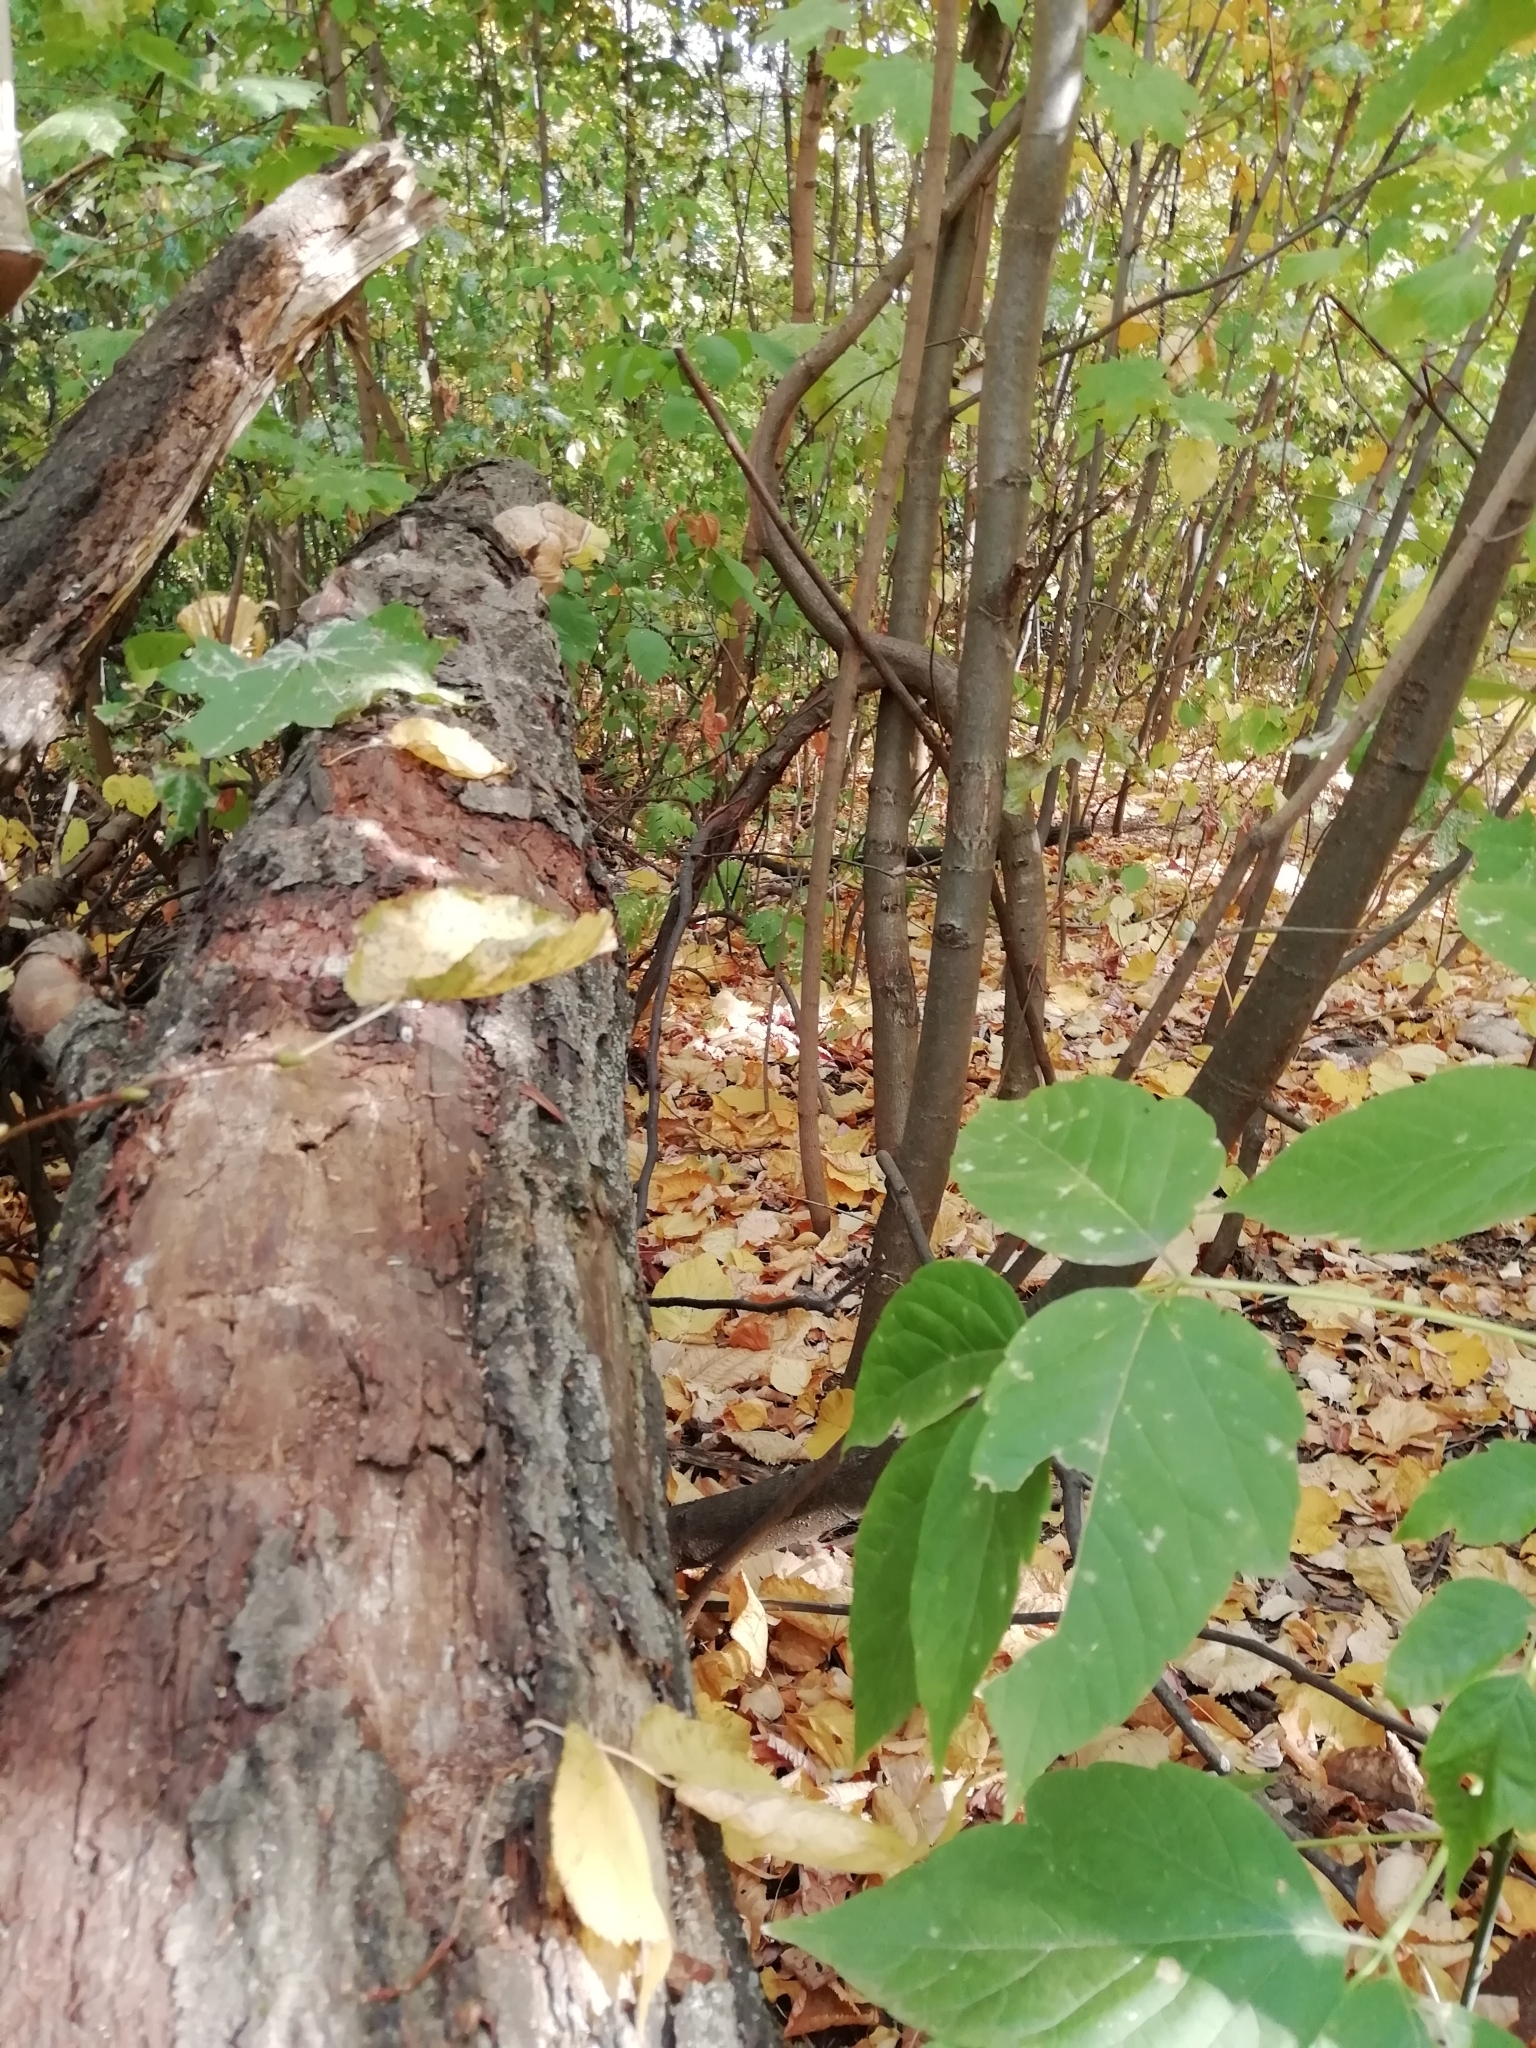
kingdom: Fungi
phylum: Basidiomycota
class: Agaricomycetes
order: Polyporales
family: Polyporaceae
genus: Ganoderma
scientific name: Ganoderma applanatum
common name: Artist's bracket
